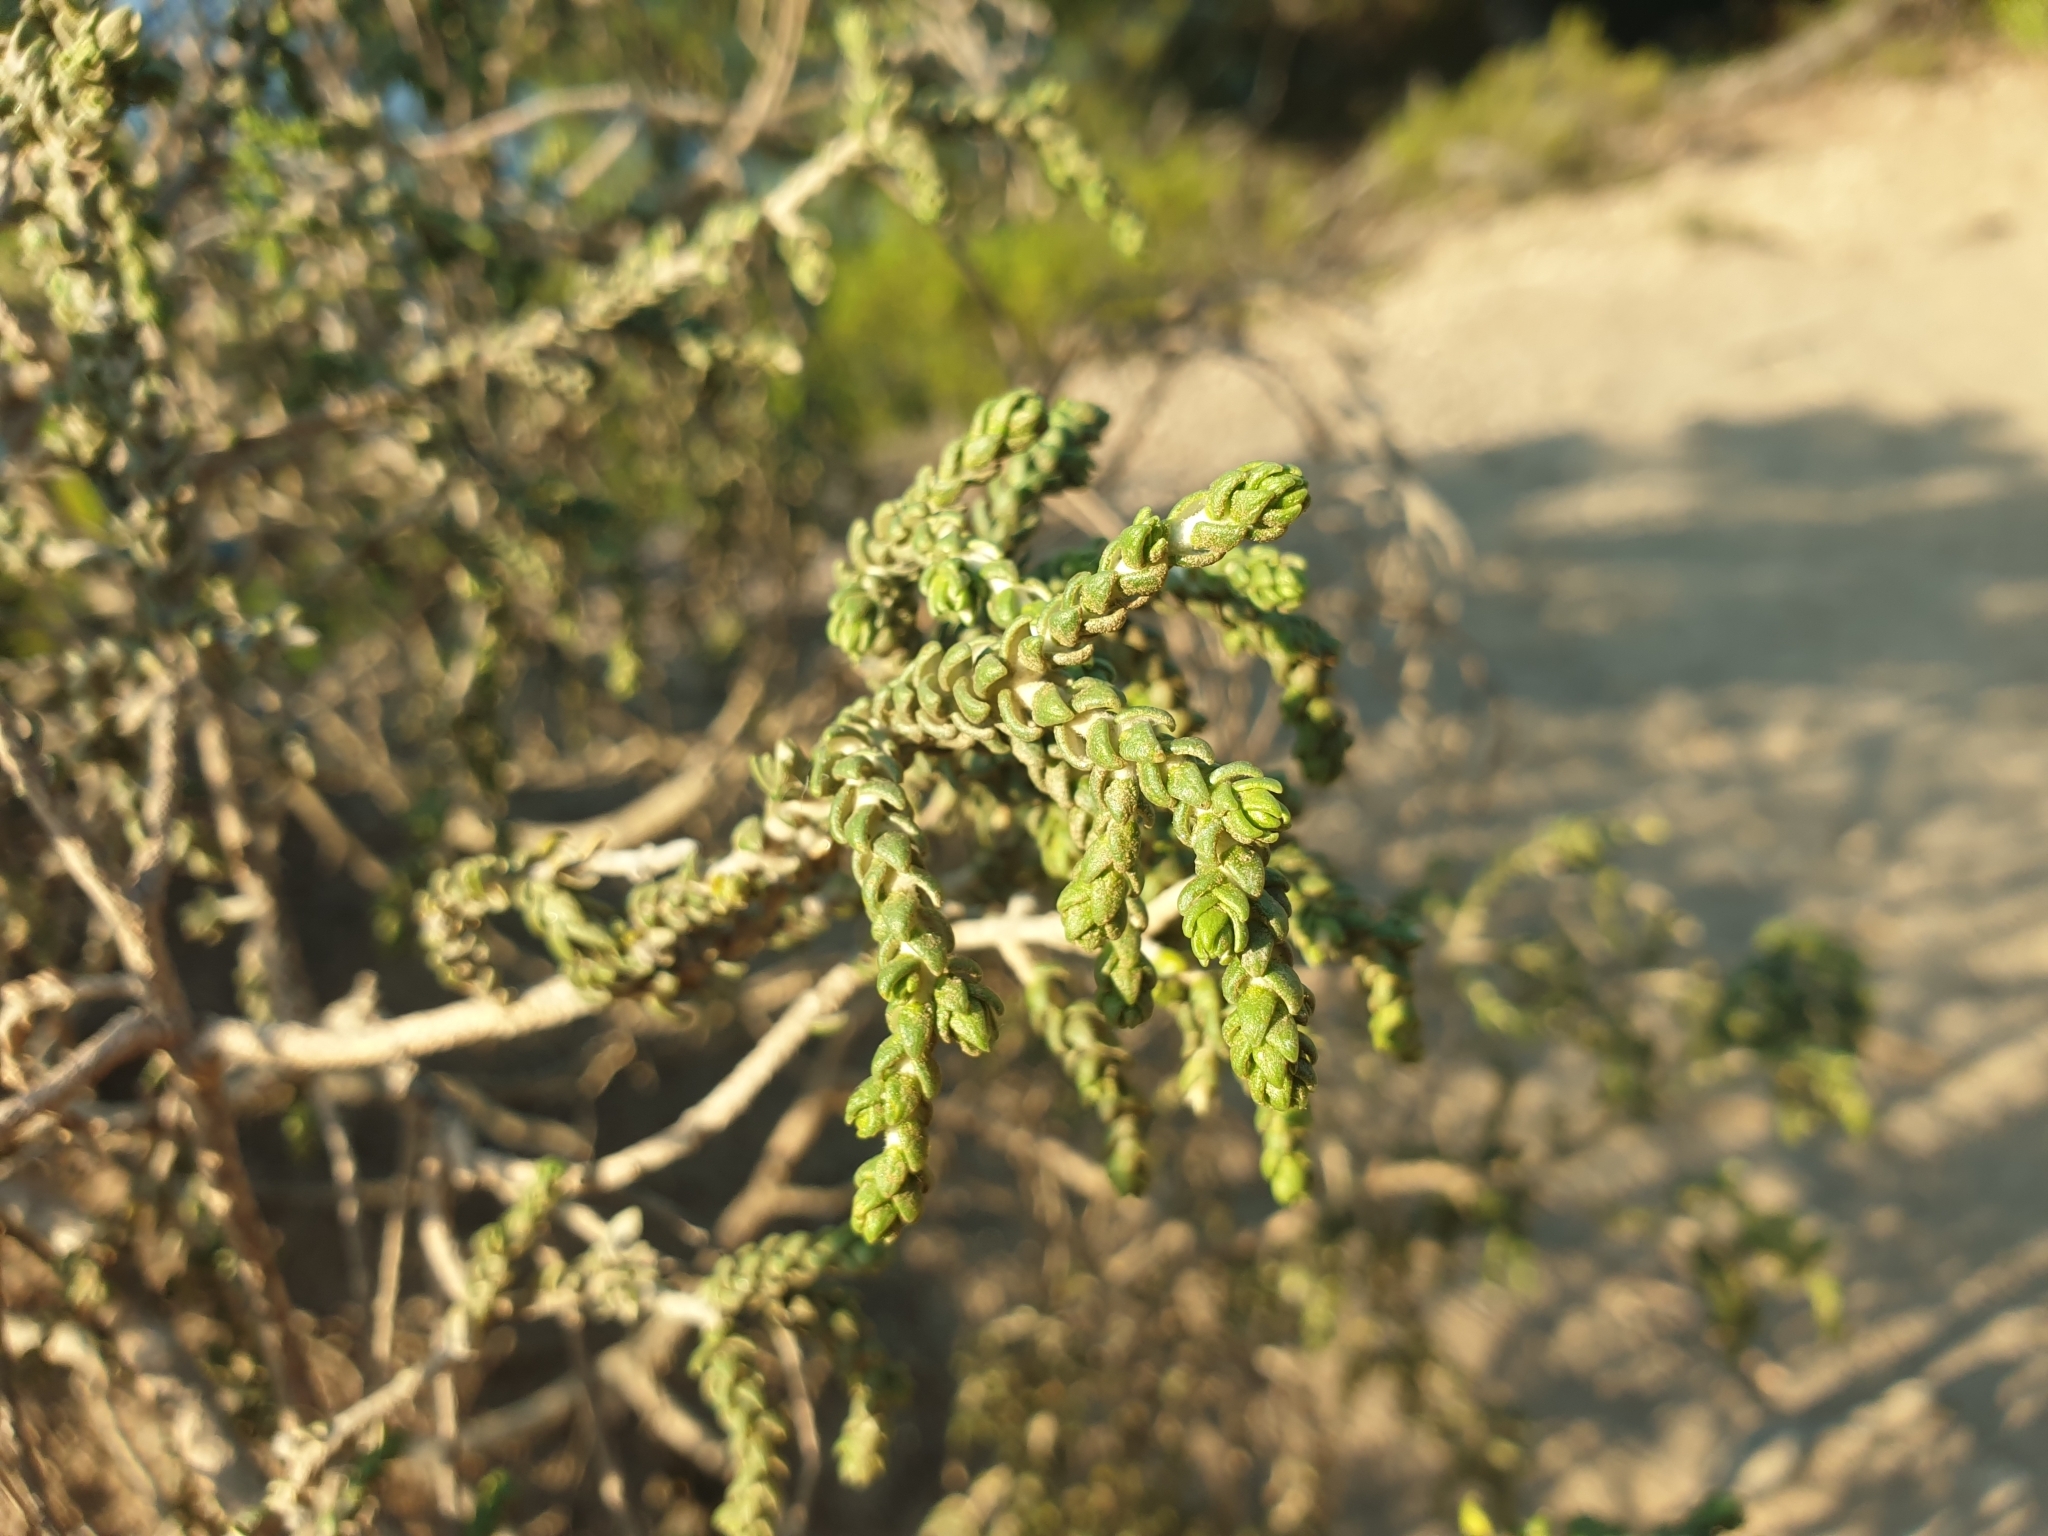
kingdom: Plantae
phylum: Tracheophyta
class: Magnoliopsida
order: Malvales
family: Thymelaeaceae
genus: Thymelaea
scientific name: Thymelaea hirsuta
